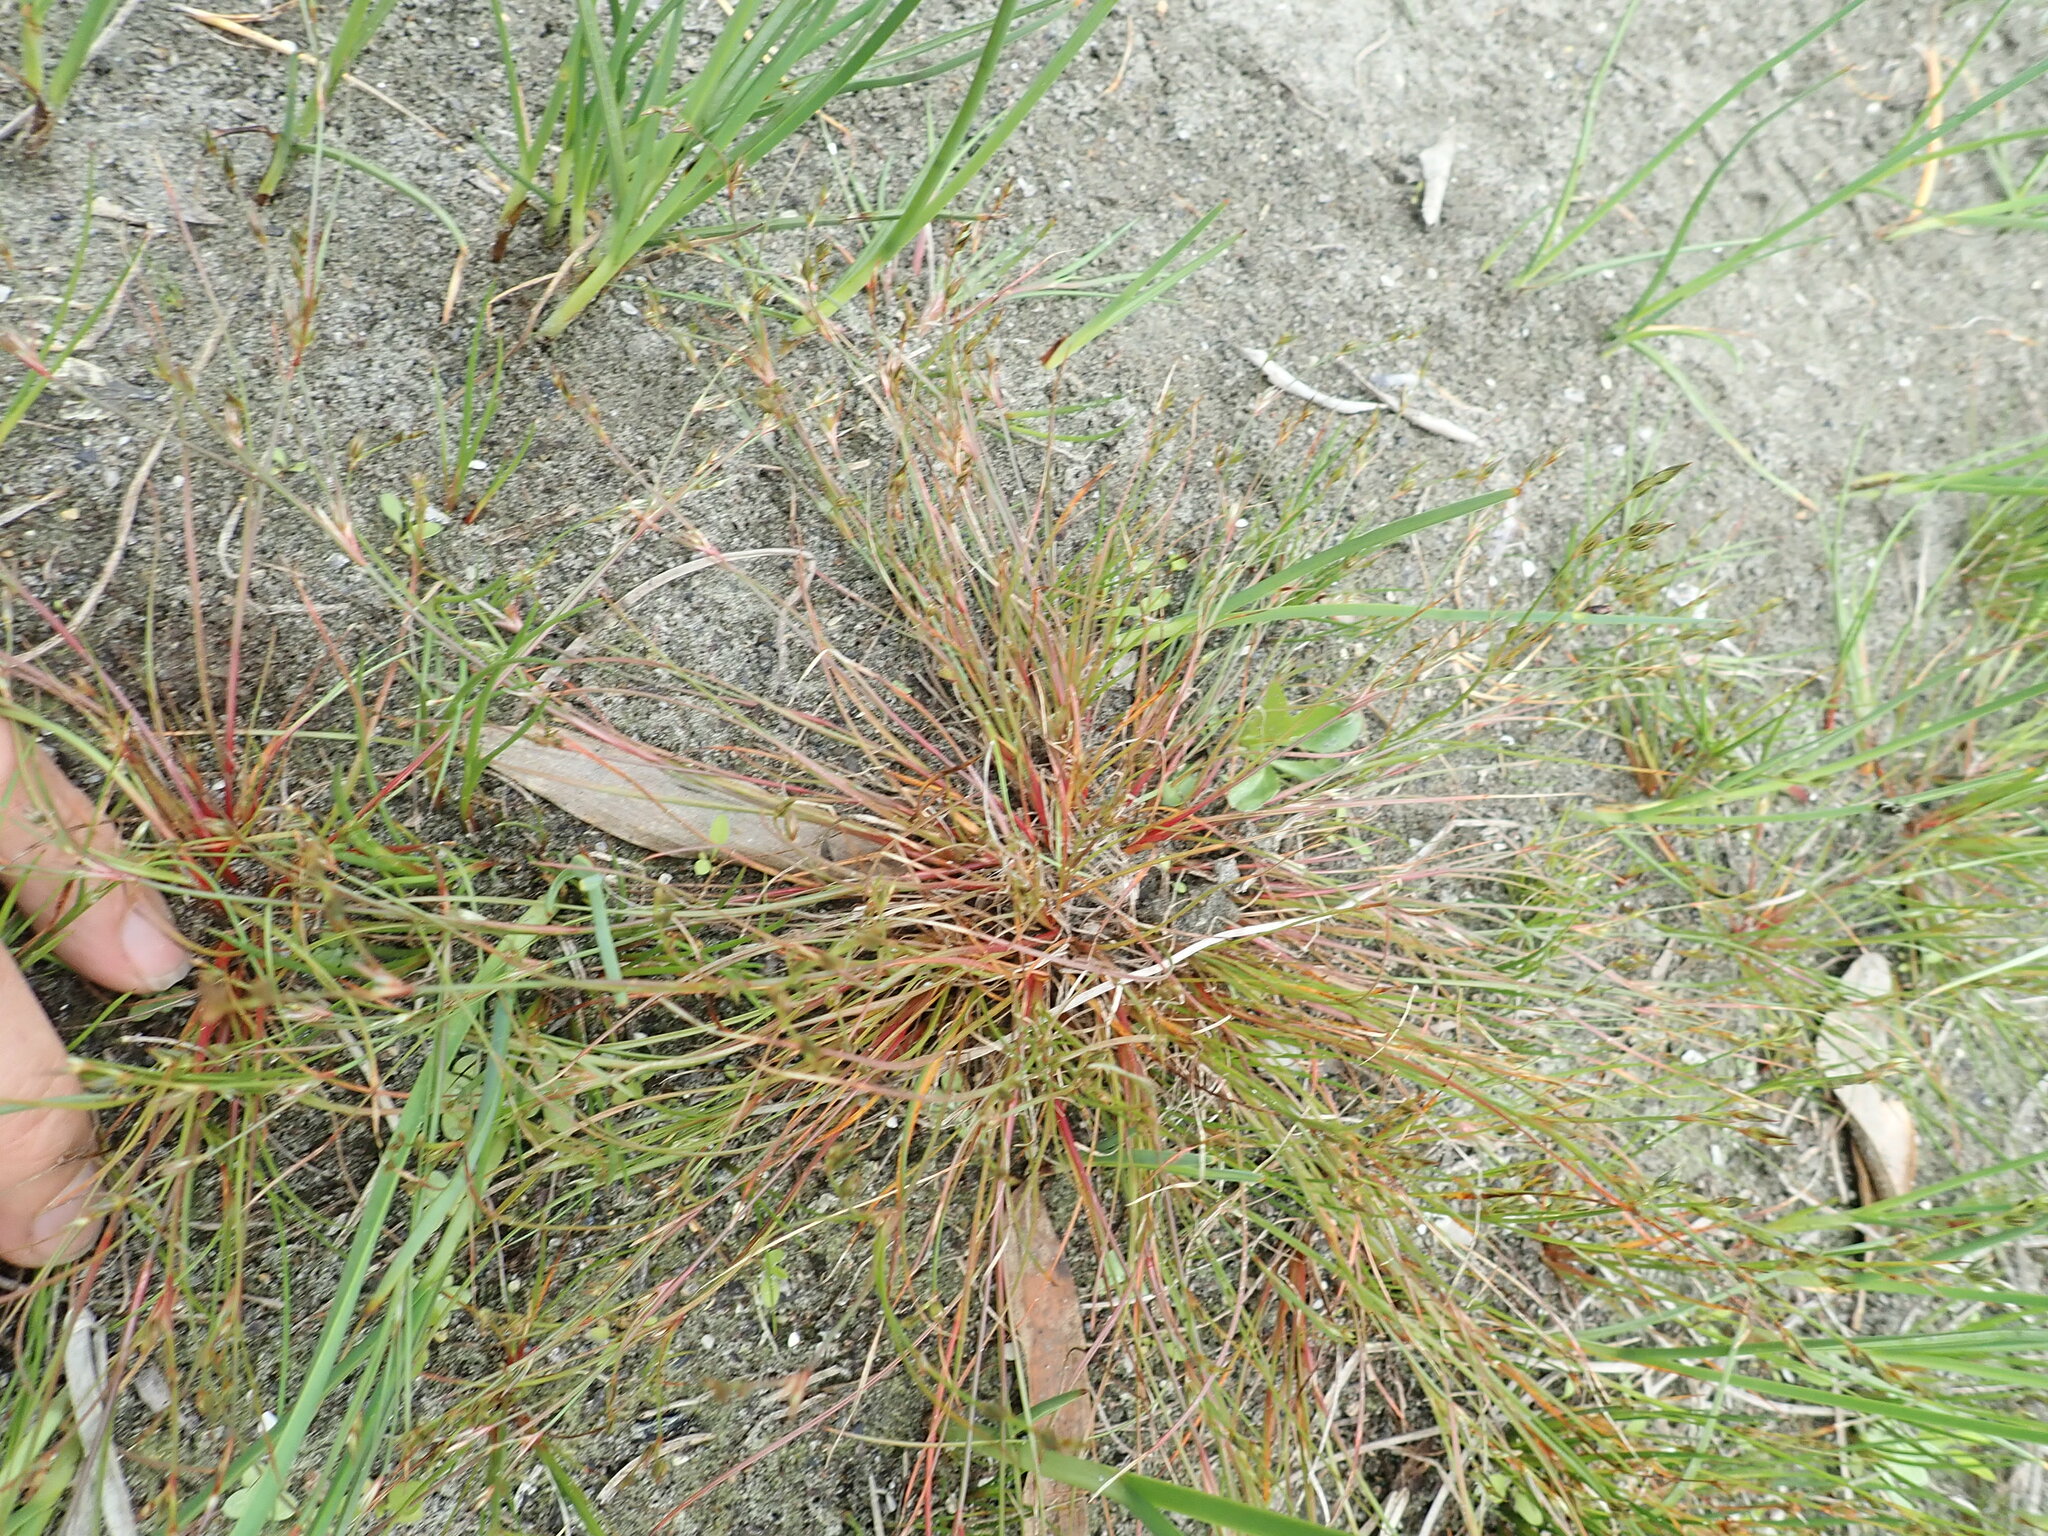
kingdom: Plantae
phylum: Tracheophyta
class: Liliopsida
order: Poales
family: Juncaceae
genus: Juncus
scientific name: Juncus bufonius
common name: Toad rush
